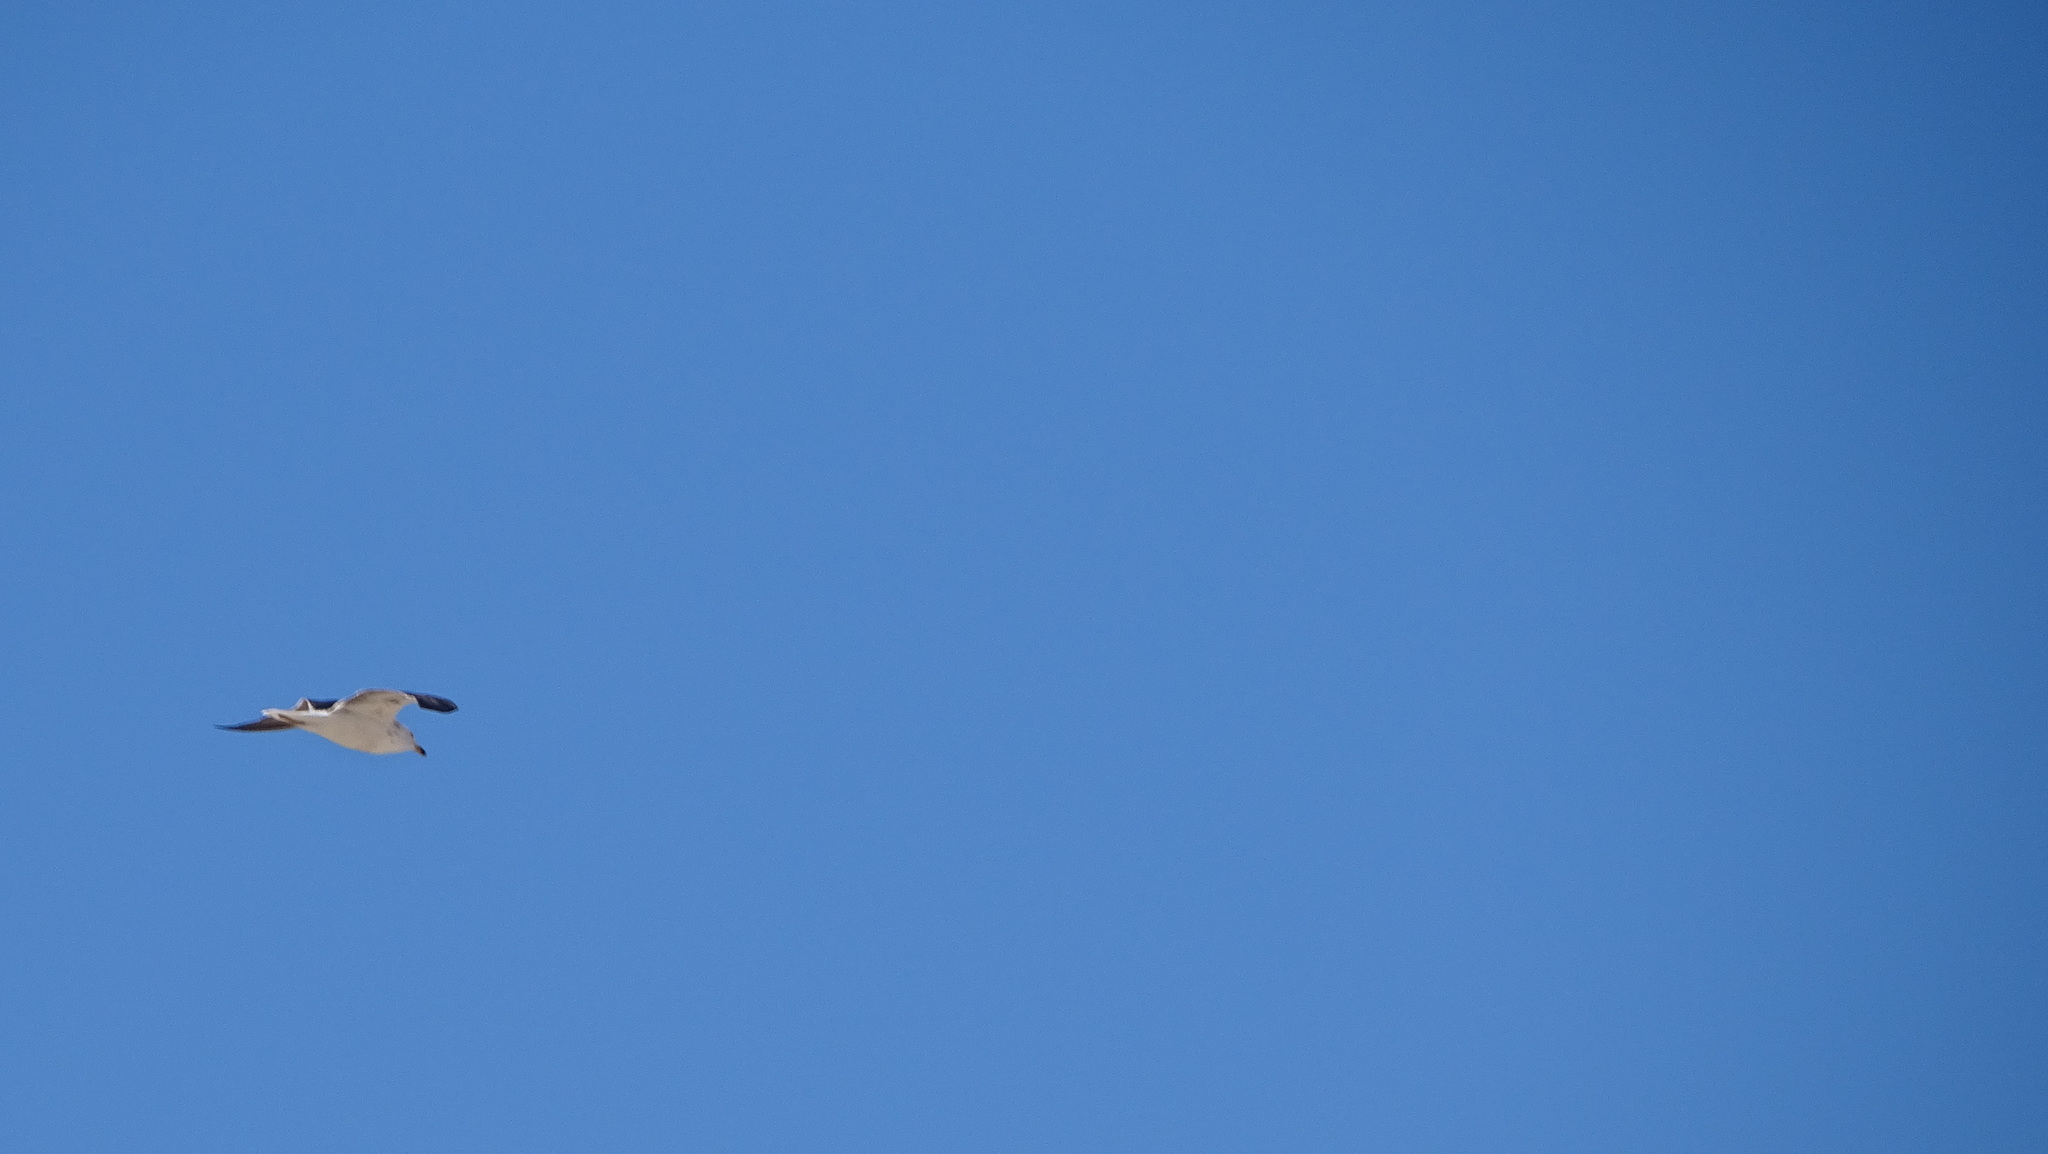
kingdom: Animalia
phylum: Chordata
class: Aves
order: Charadriiformes
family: Laridae
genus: Larus
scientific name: Larus fuscus
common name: Lesser black-backed gull
